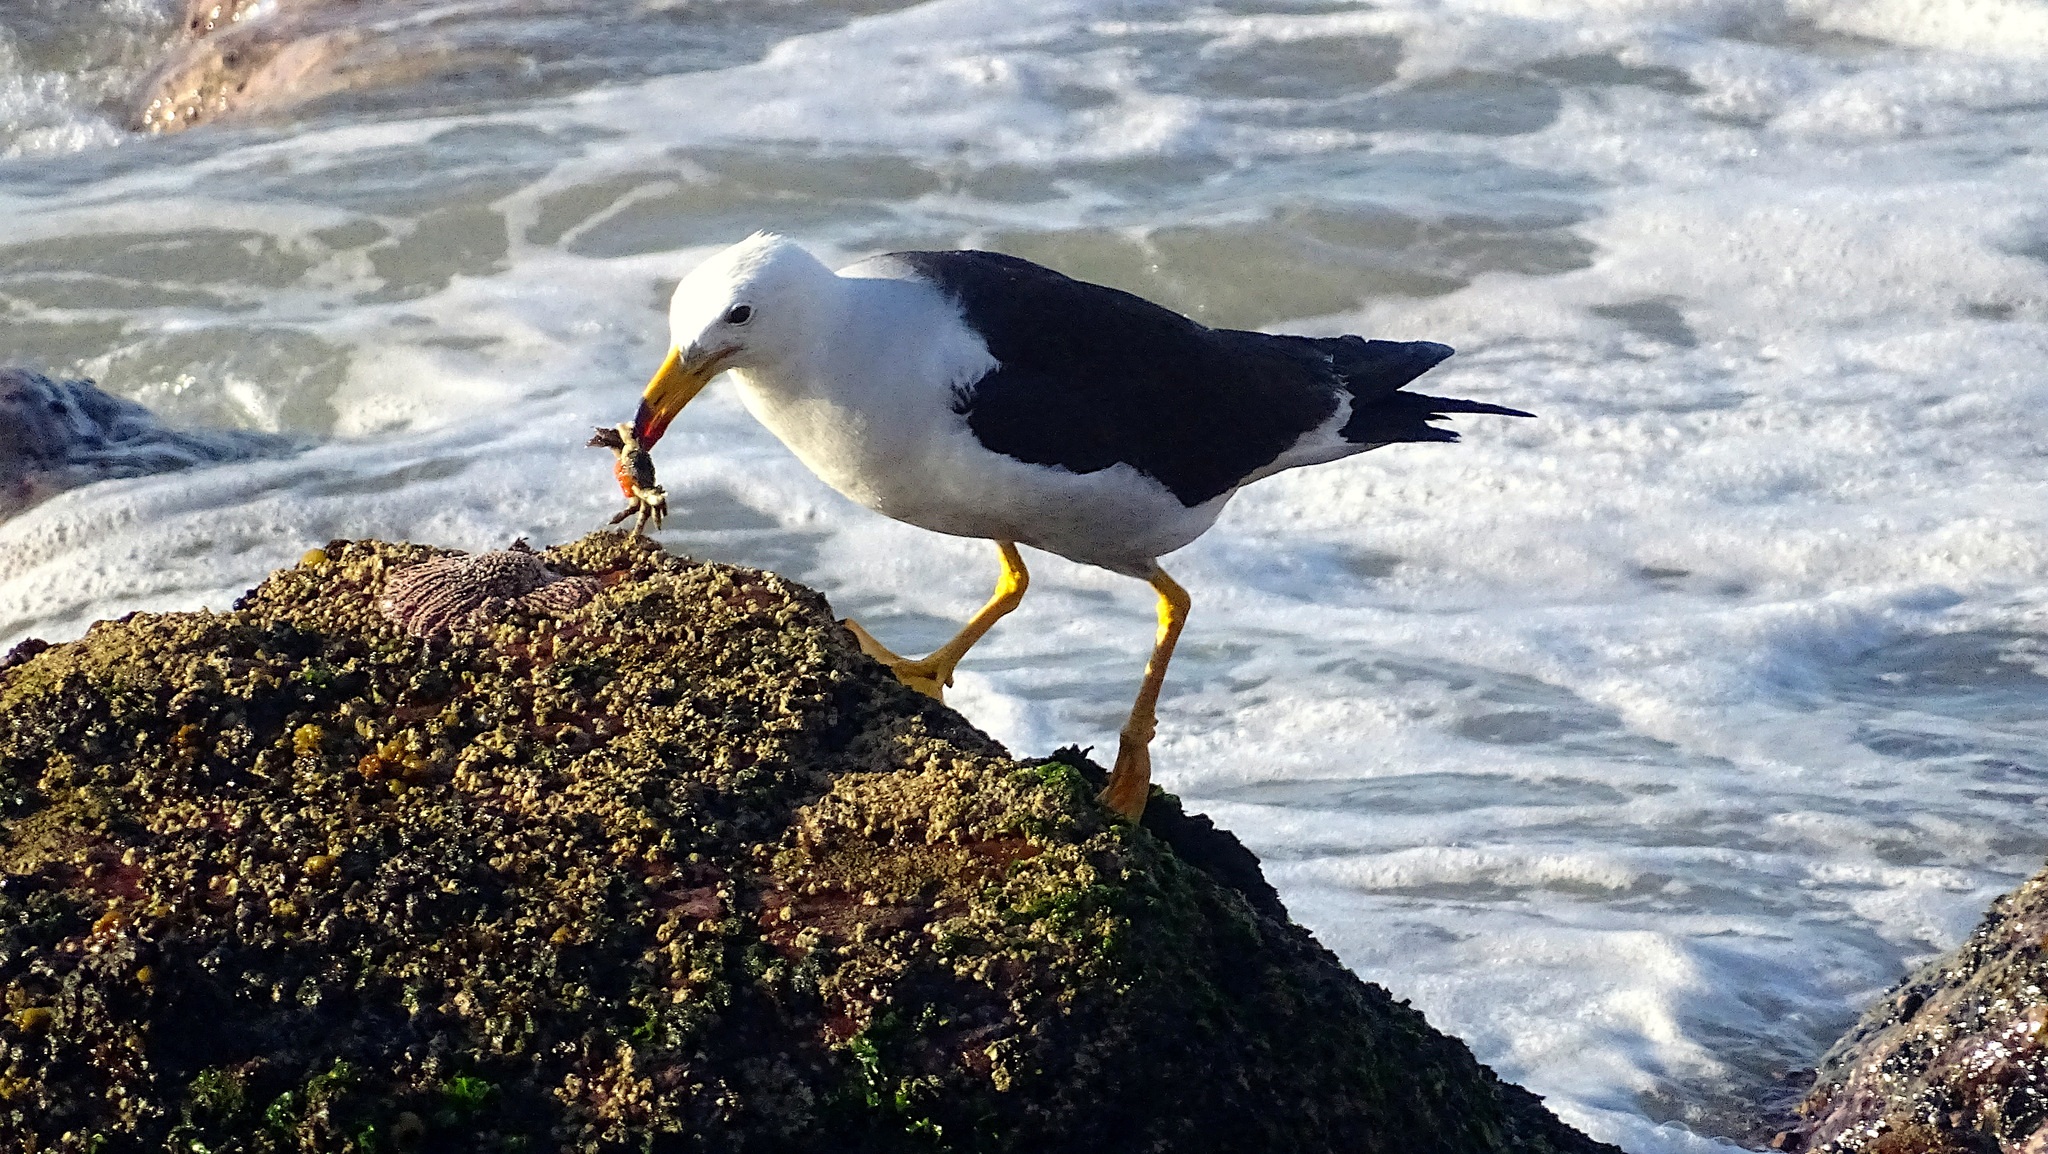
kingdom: Animalia
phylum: Chordata
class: Aves
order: Charadriiformes
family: Laridae
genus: Larus
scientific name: Larus belcheri
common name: Belcher's gull
